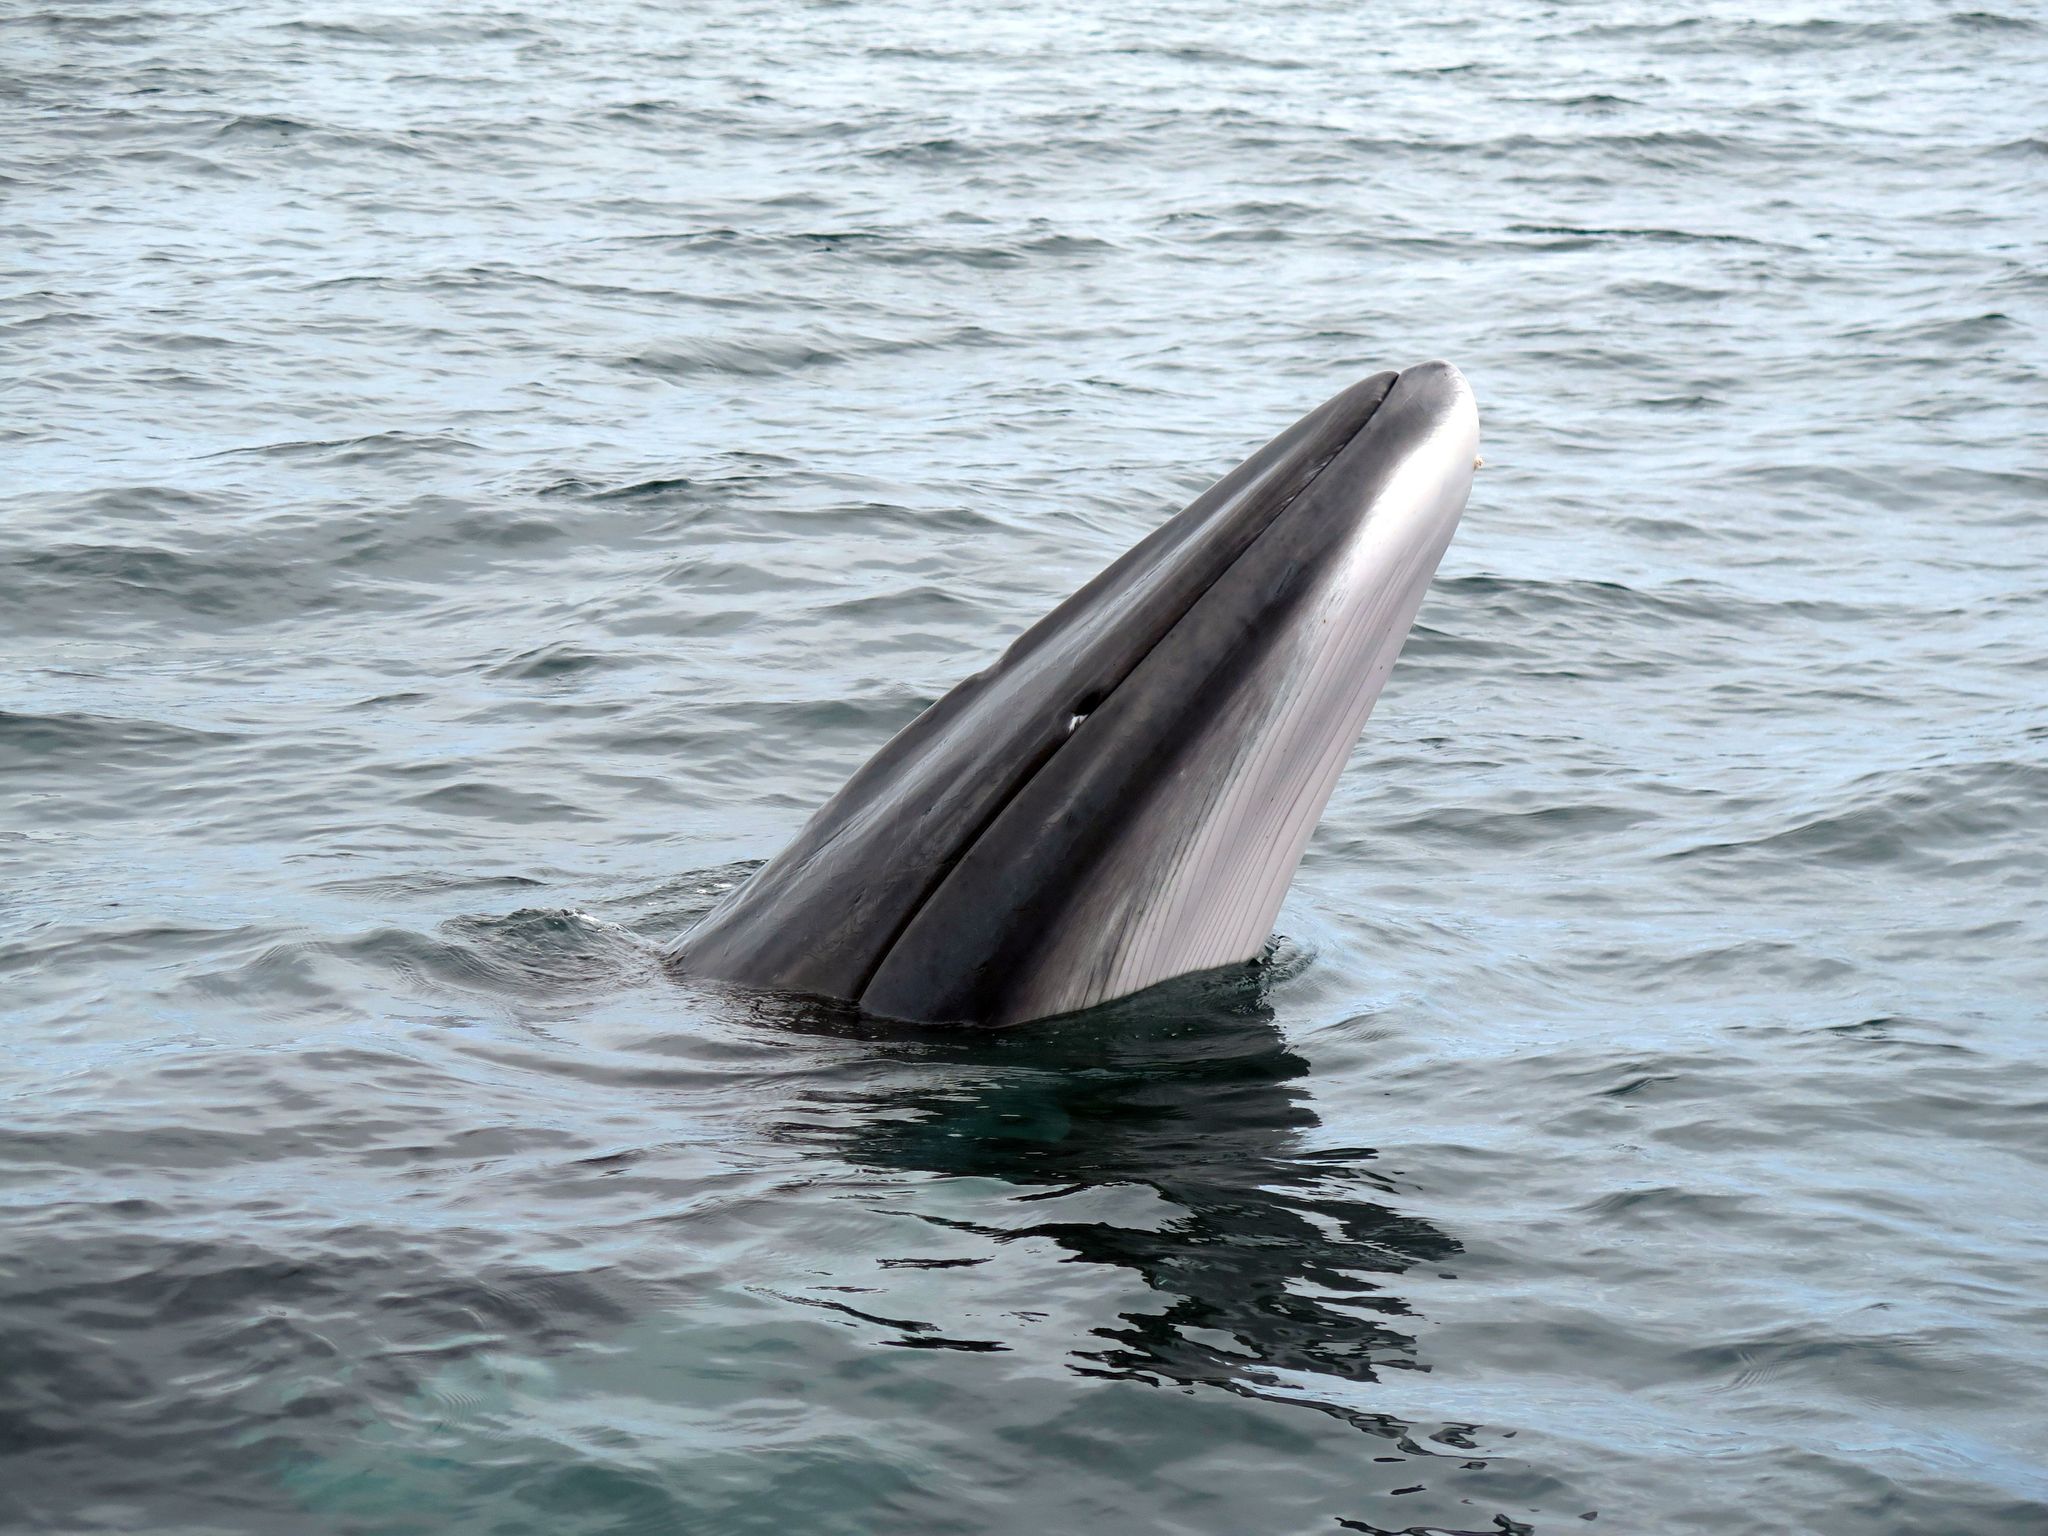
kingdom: Animalia
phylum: Chordata
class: Mammalia
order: Cetacea
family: Balaenopteridae
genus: Balaenoptera
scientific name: Balaenoptera acutorostrata
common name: Common minke whale
